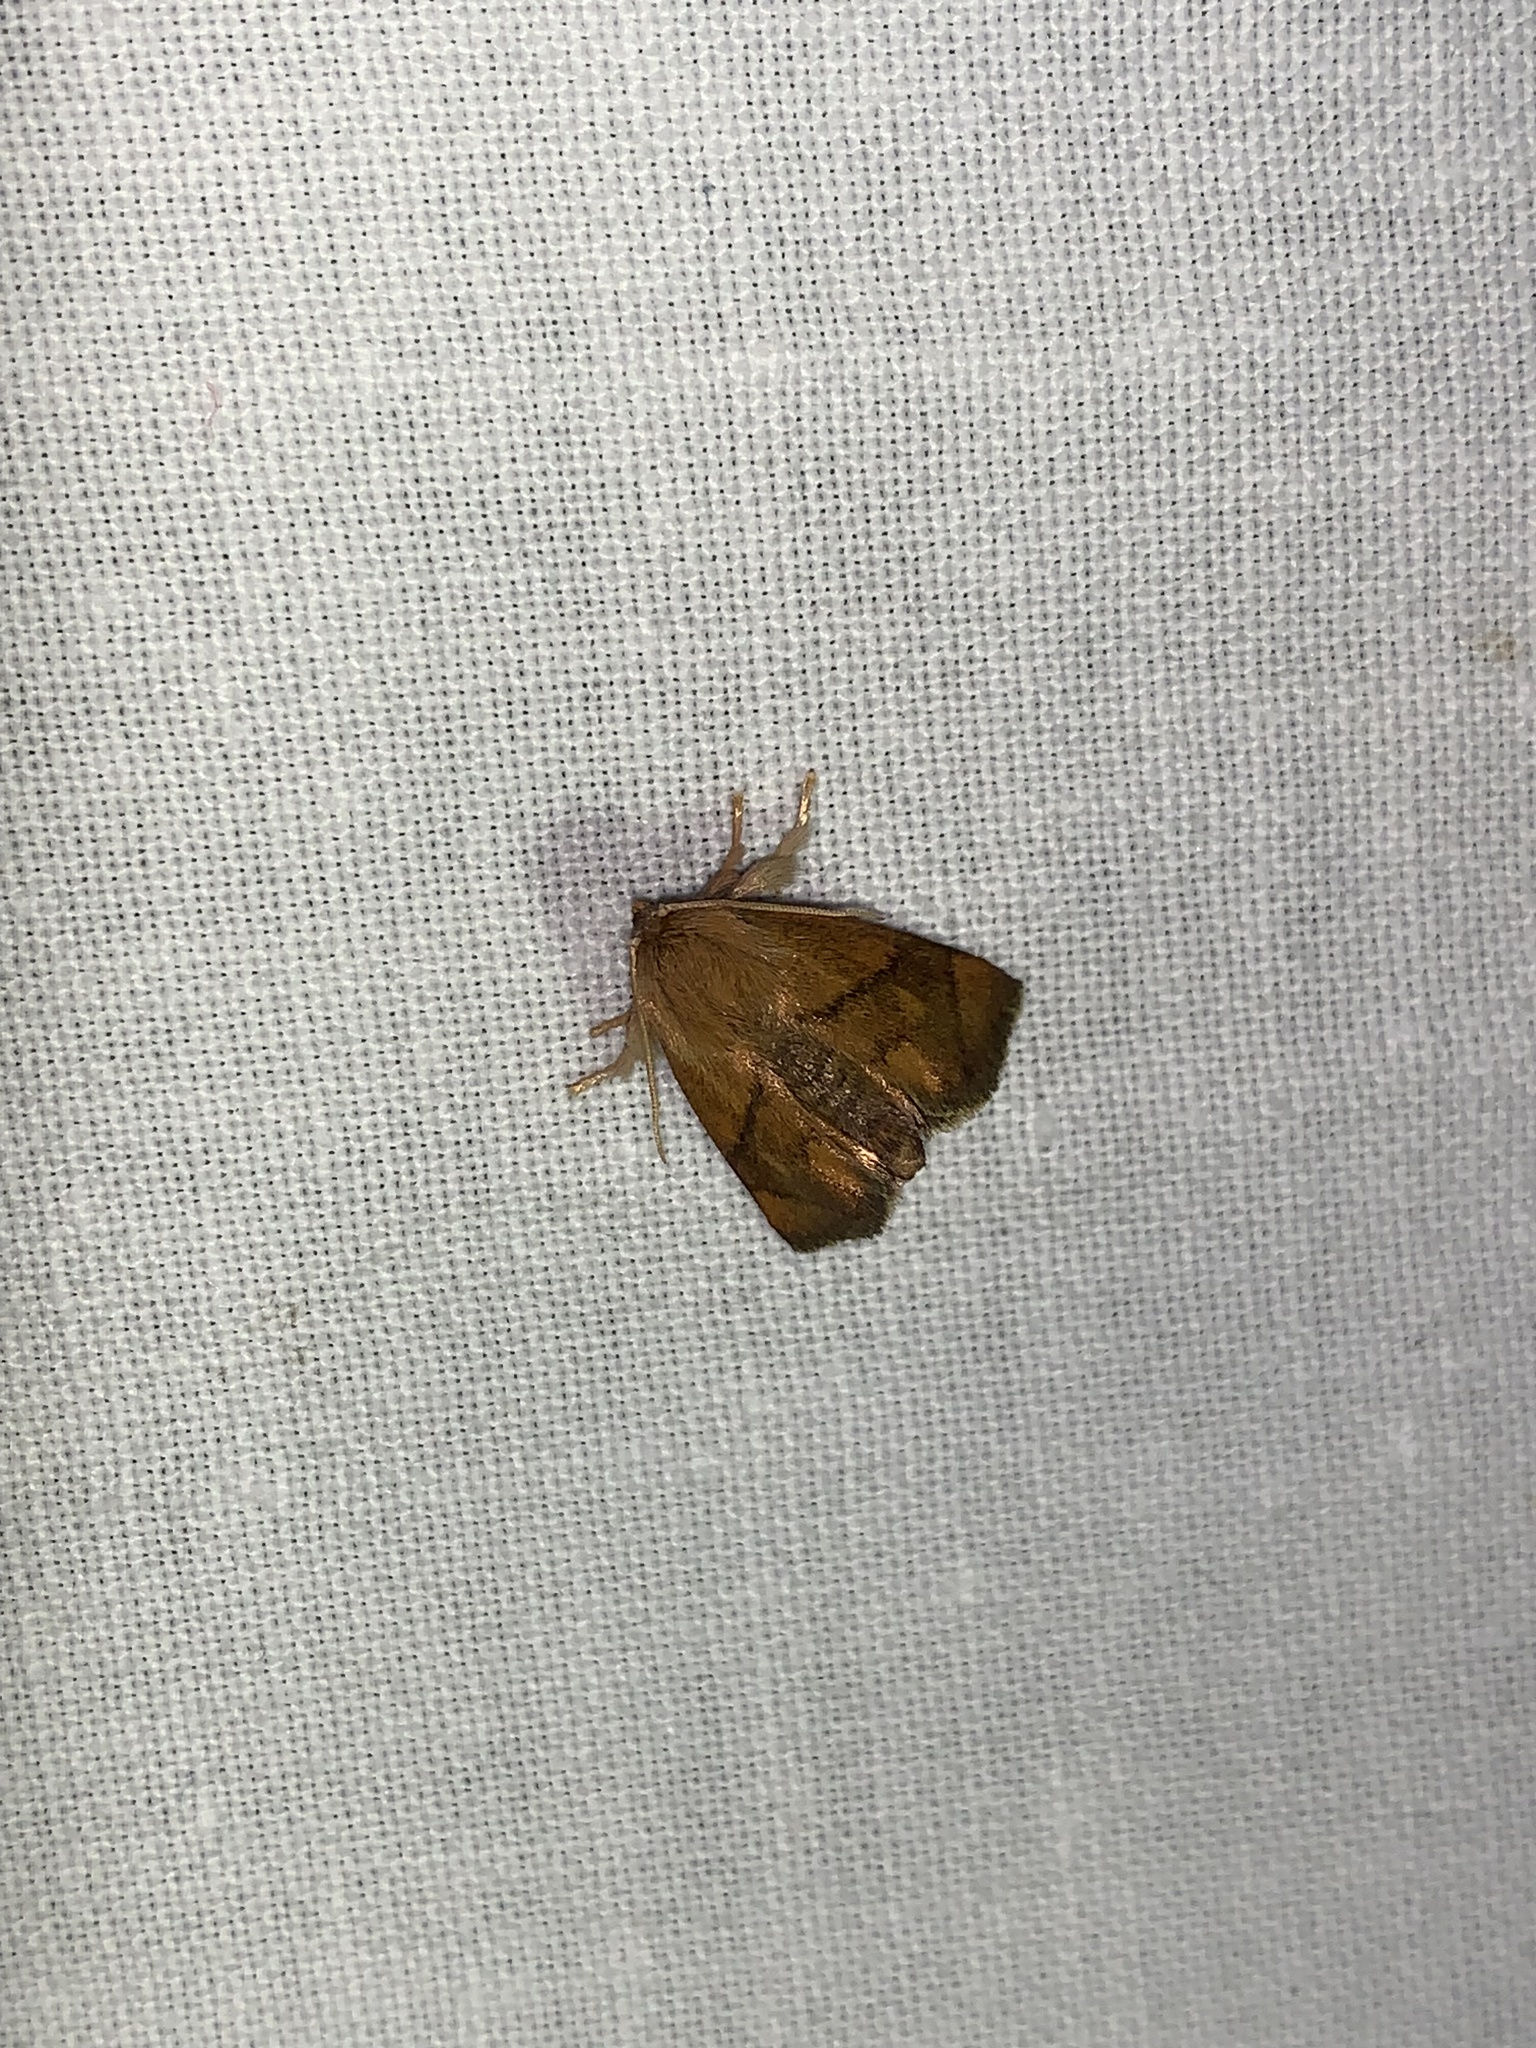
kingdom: Animalia
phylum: Arthropoda
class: Insecta
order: Lepidoptera
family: Limacodidae
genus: Apoda
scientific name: Apoda limacodes
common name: Festoon
